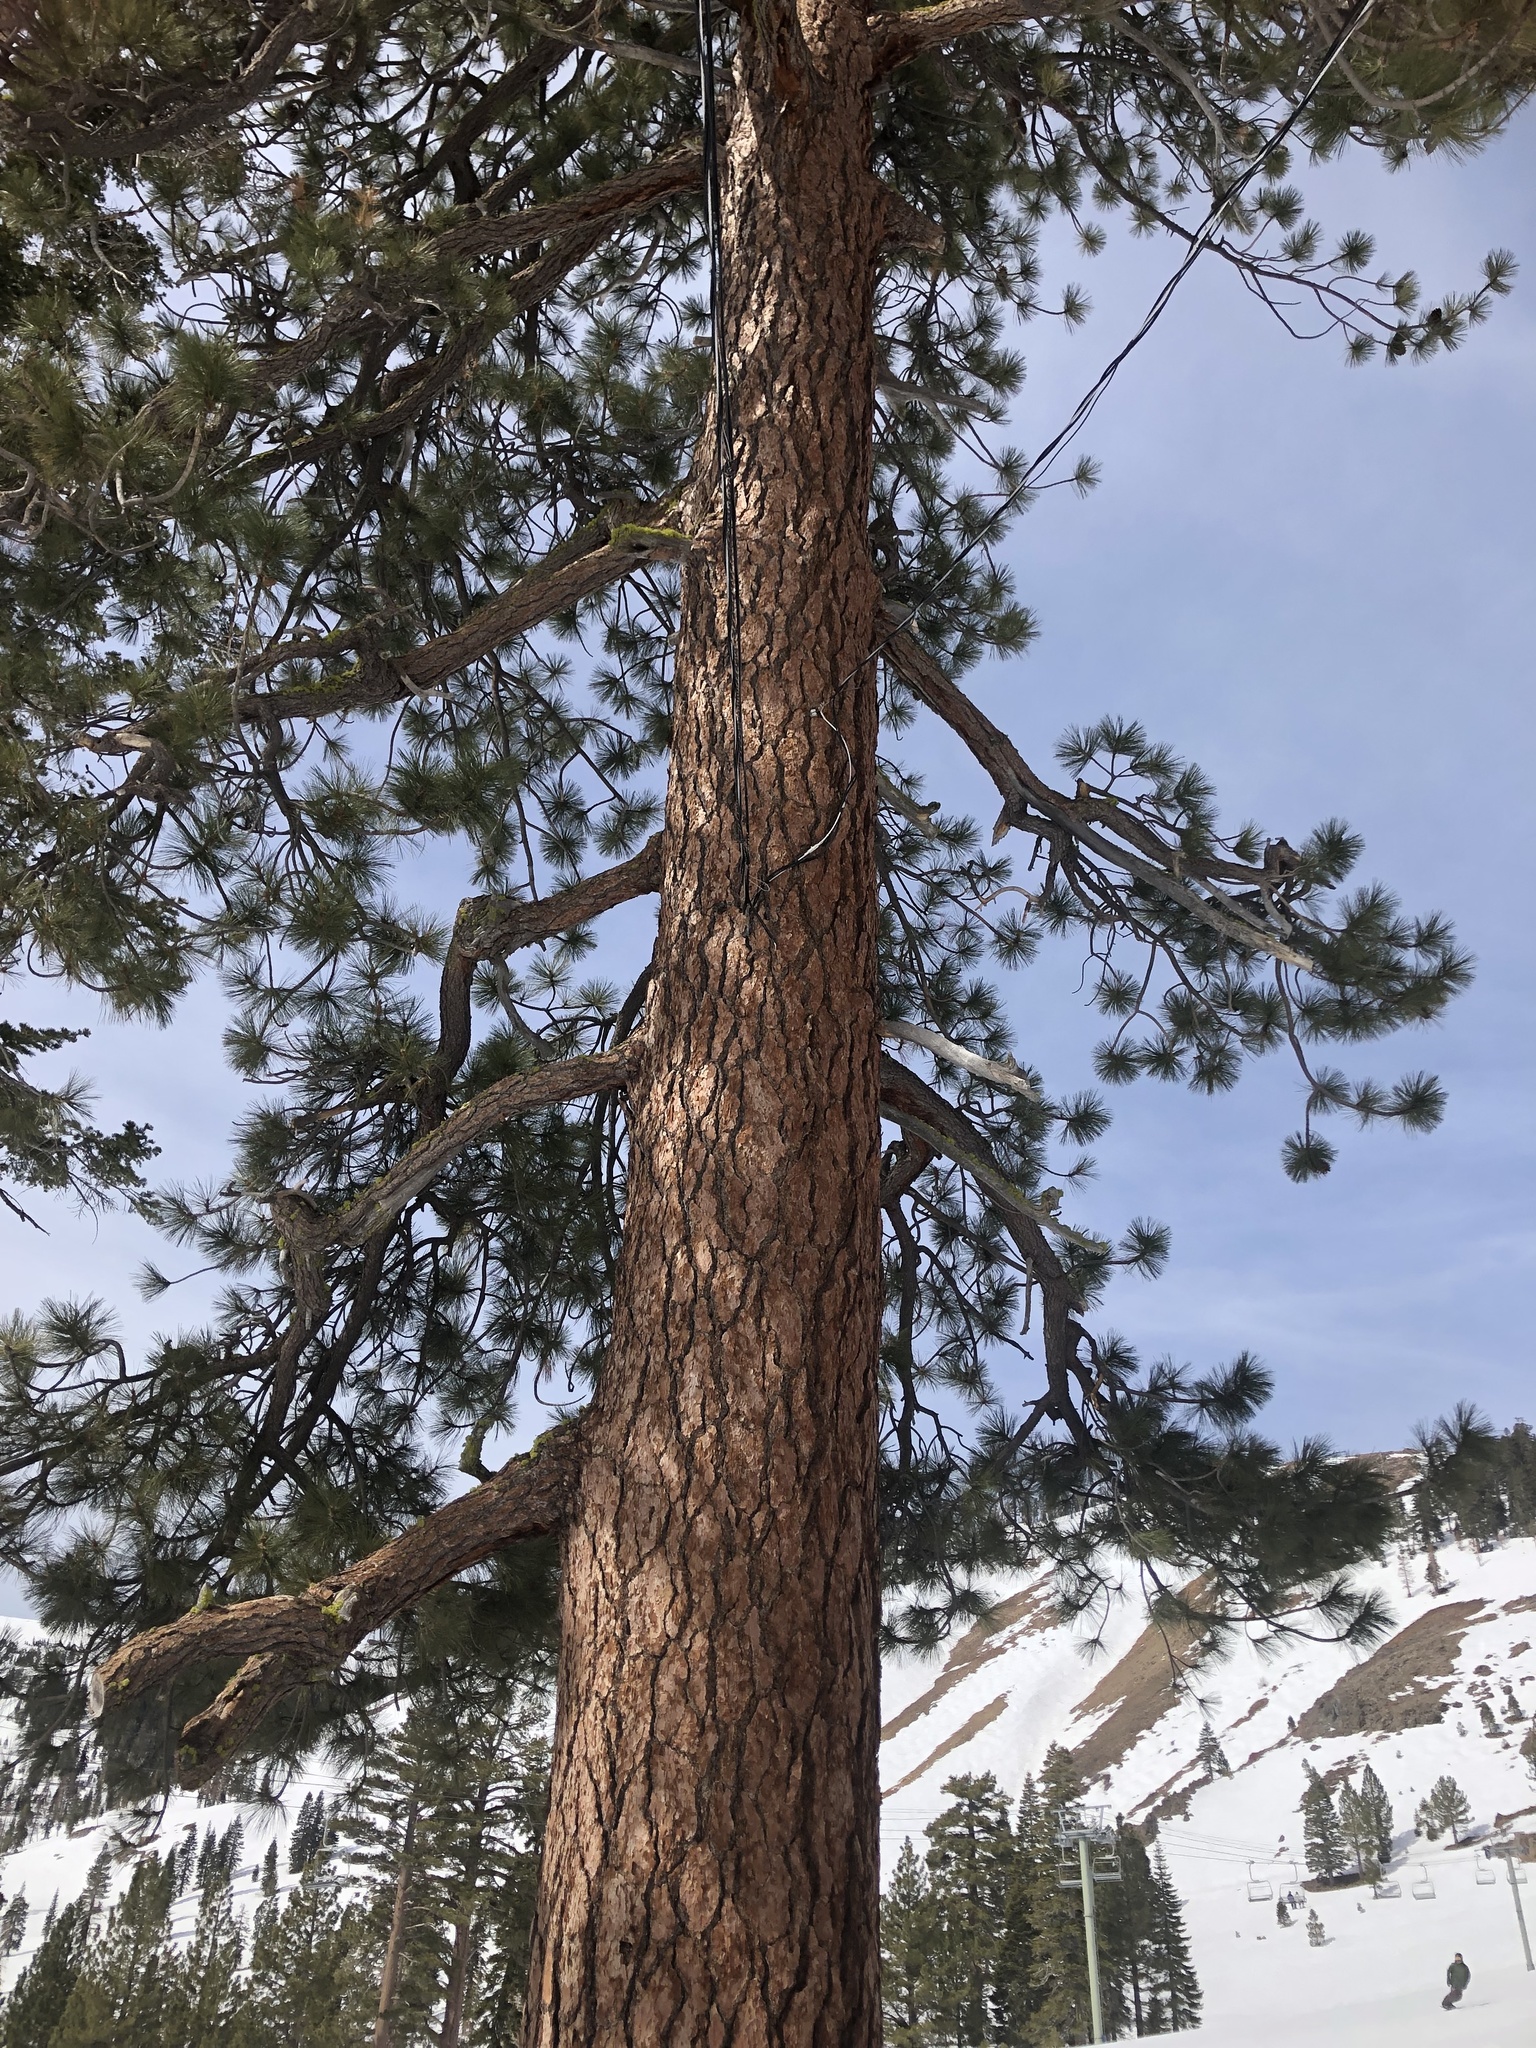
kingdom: Plantae
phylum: Tracheophyta
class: Pinopsida
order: Pinales
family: Pinaceae
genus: Pinus
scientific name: Pinus jeffreyi
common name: Jeffrey pine
